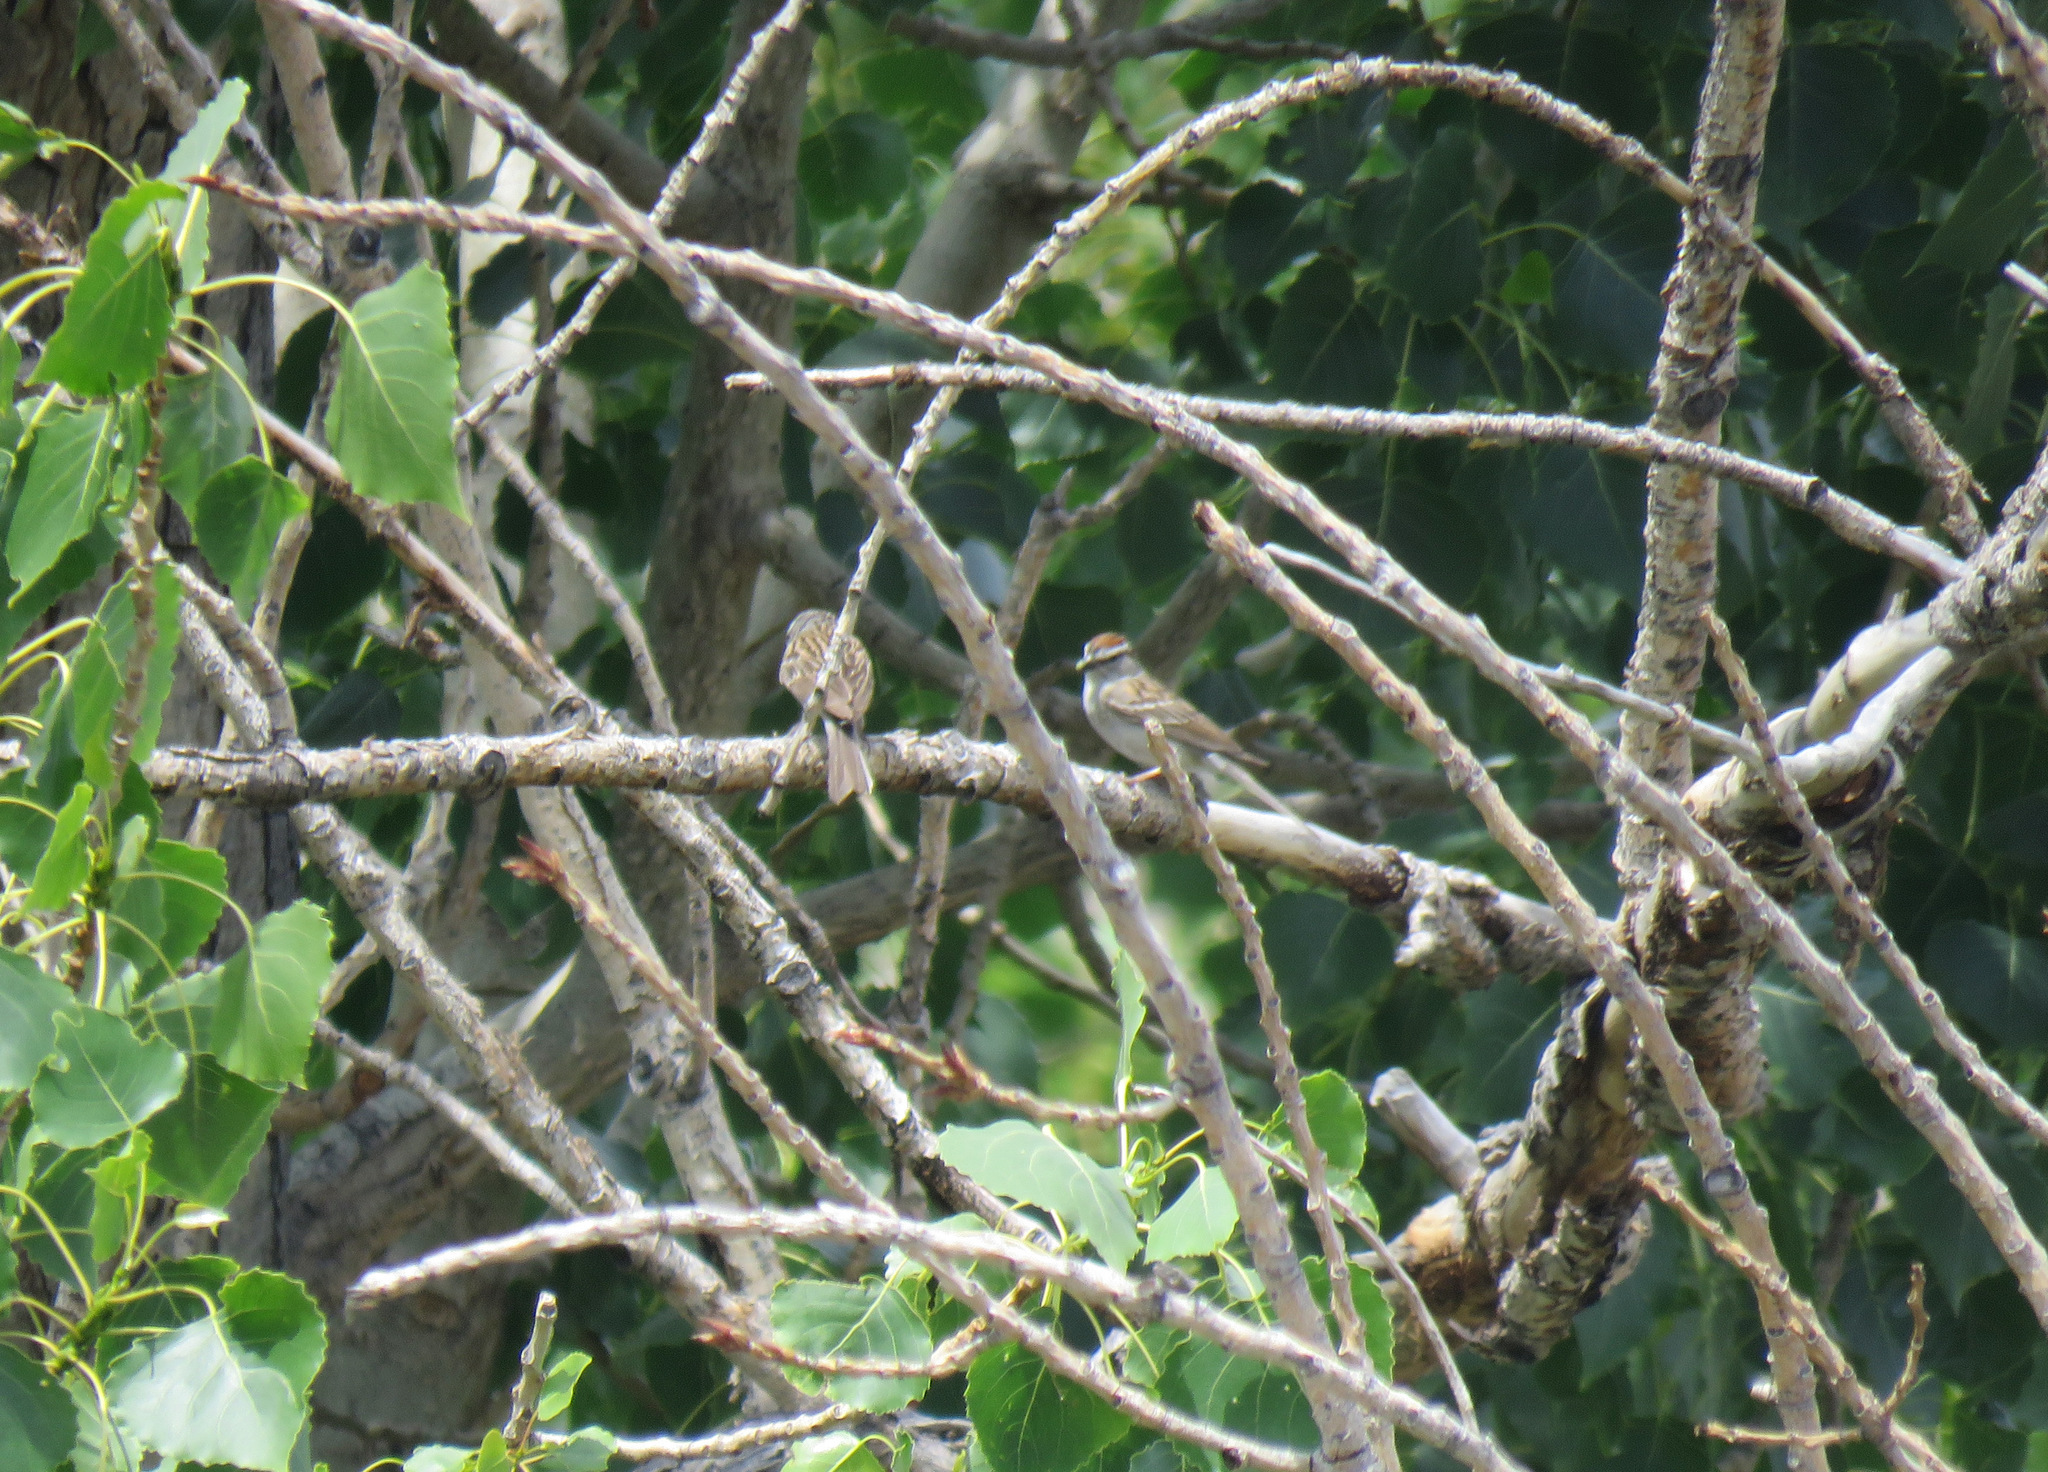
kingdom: Animalia
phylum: Chordata
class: Aves
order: Passeriformes
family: Passerellidae
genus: Spizella
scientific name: Spizella passerina
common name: Chipping sparrow
